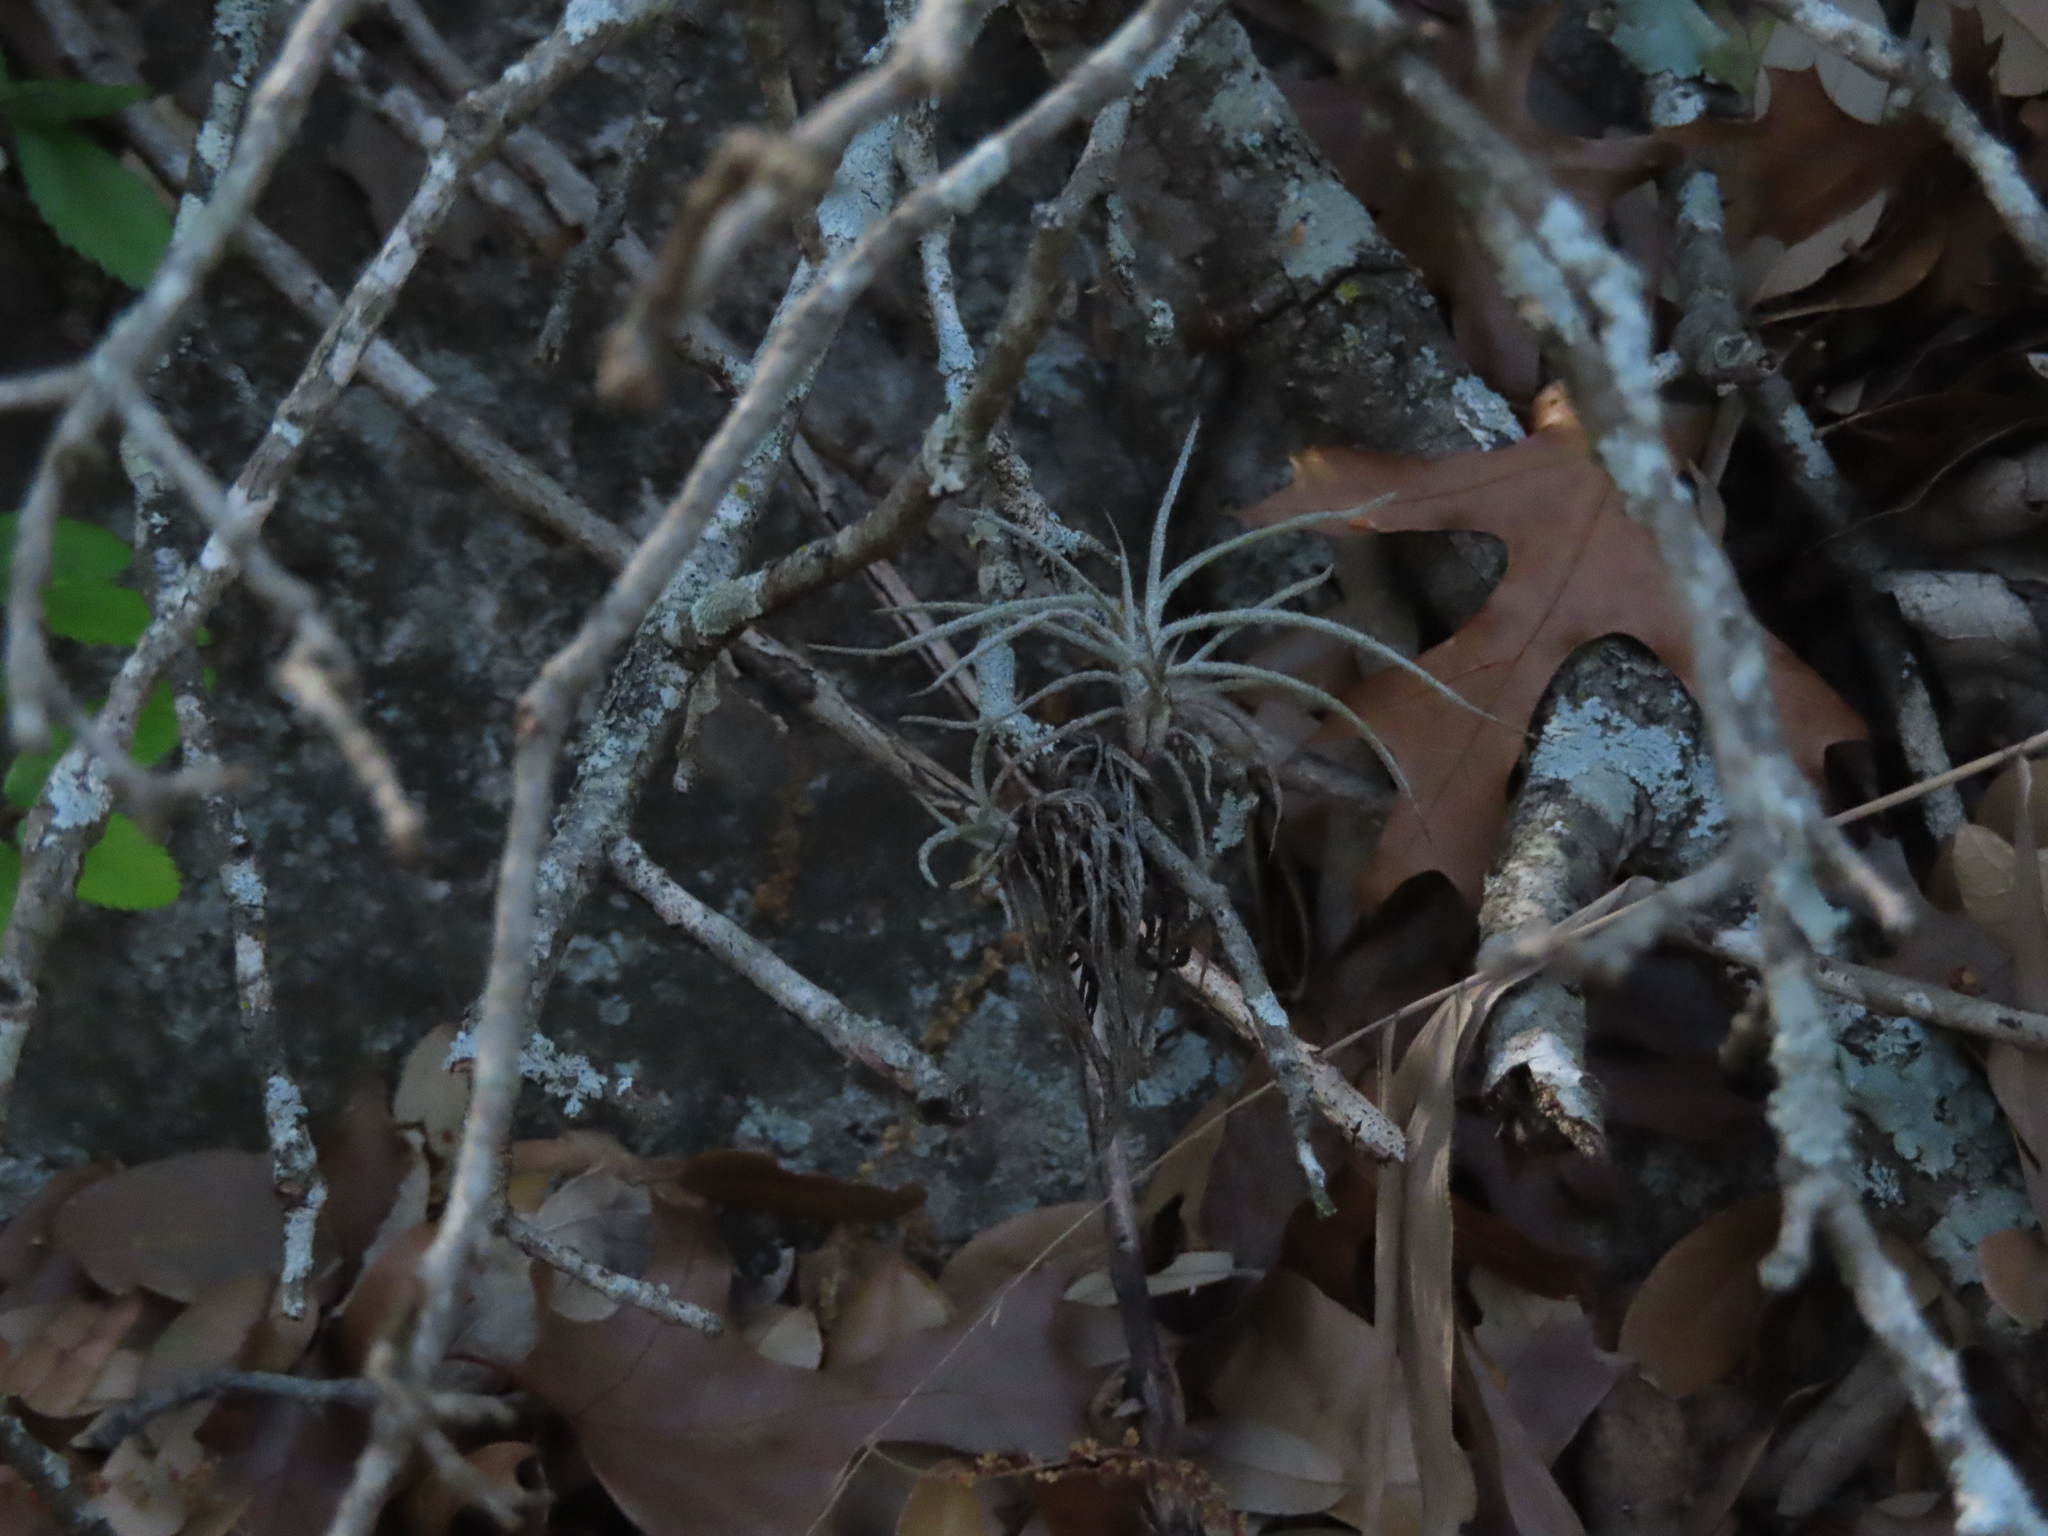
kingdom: Plantae
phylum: Tracheophyta
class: Liliopsida
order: Poales
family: Bromeliaceae
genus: Tillandsia
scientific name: Tillandsia recurvata
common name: Small ballmoss
